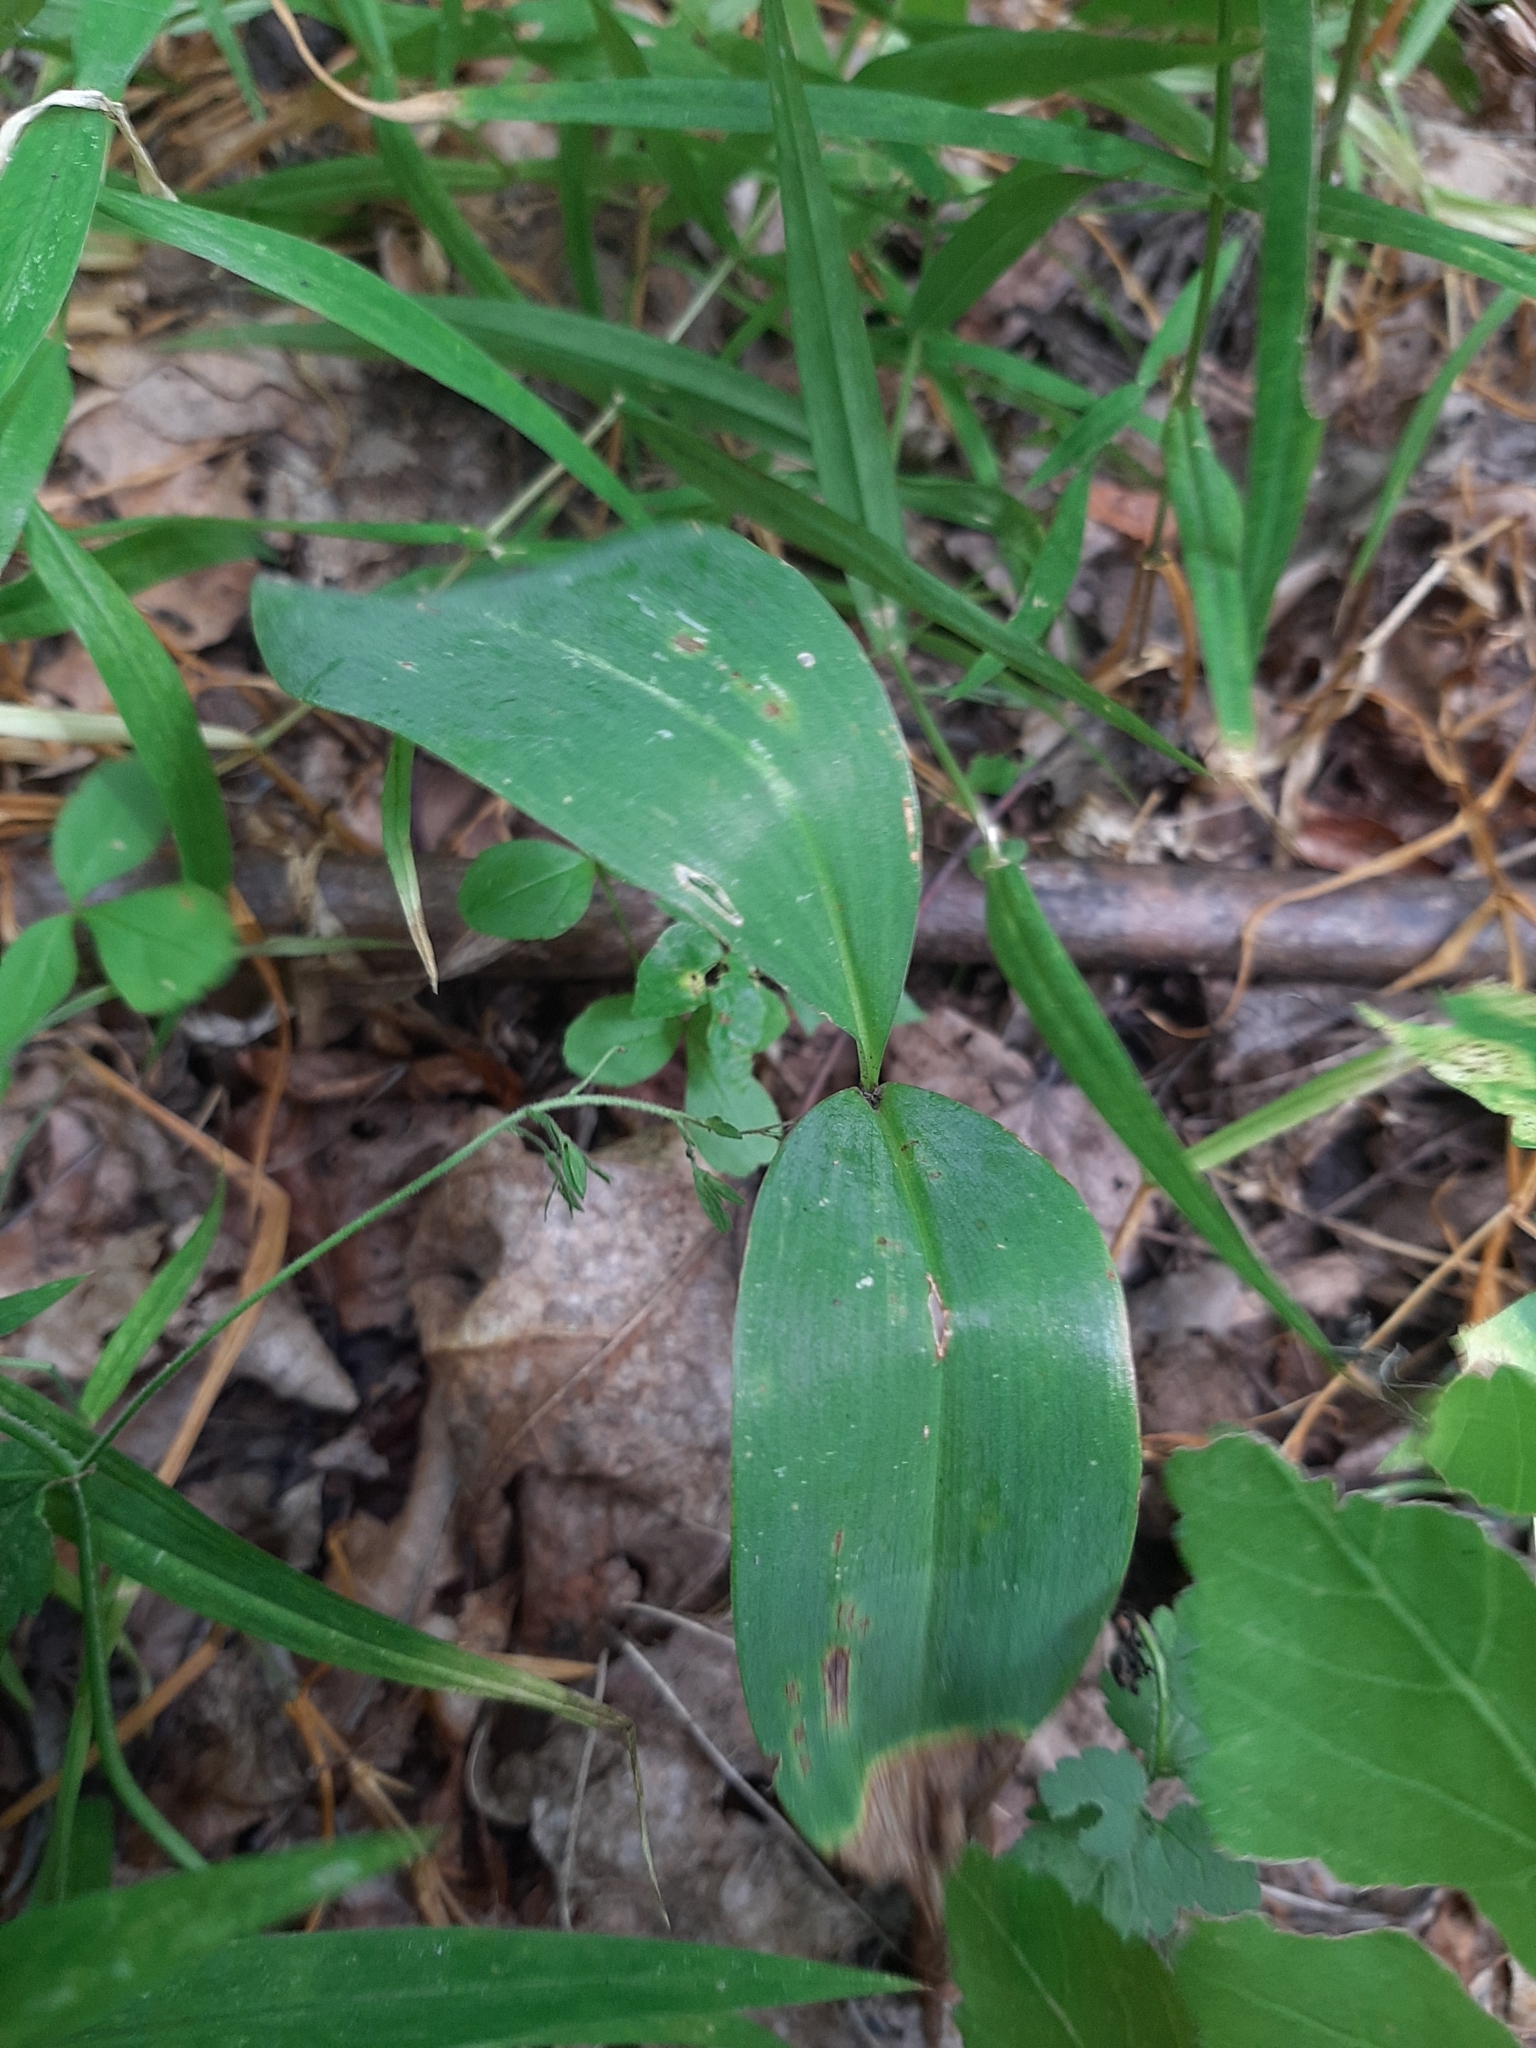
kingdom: Plantae
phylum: Tracheophyta
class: Liliopsida
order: Asparagales
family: Asparagaceae
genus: Convallaria
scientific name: Convallaria majalis
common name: Lily-of-the-valley
